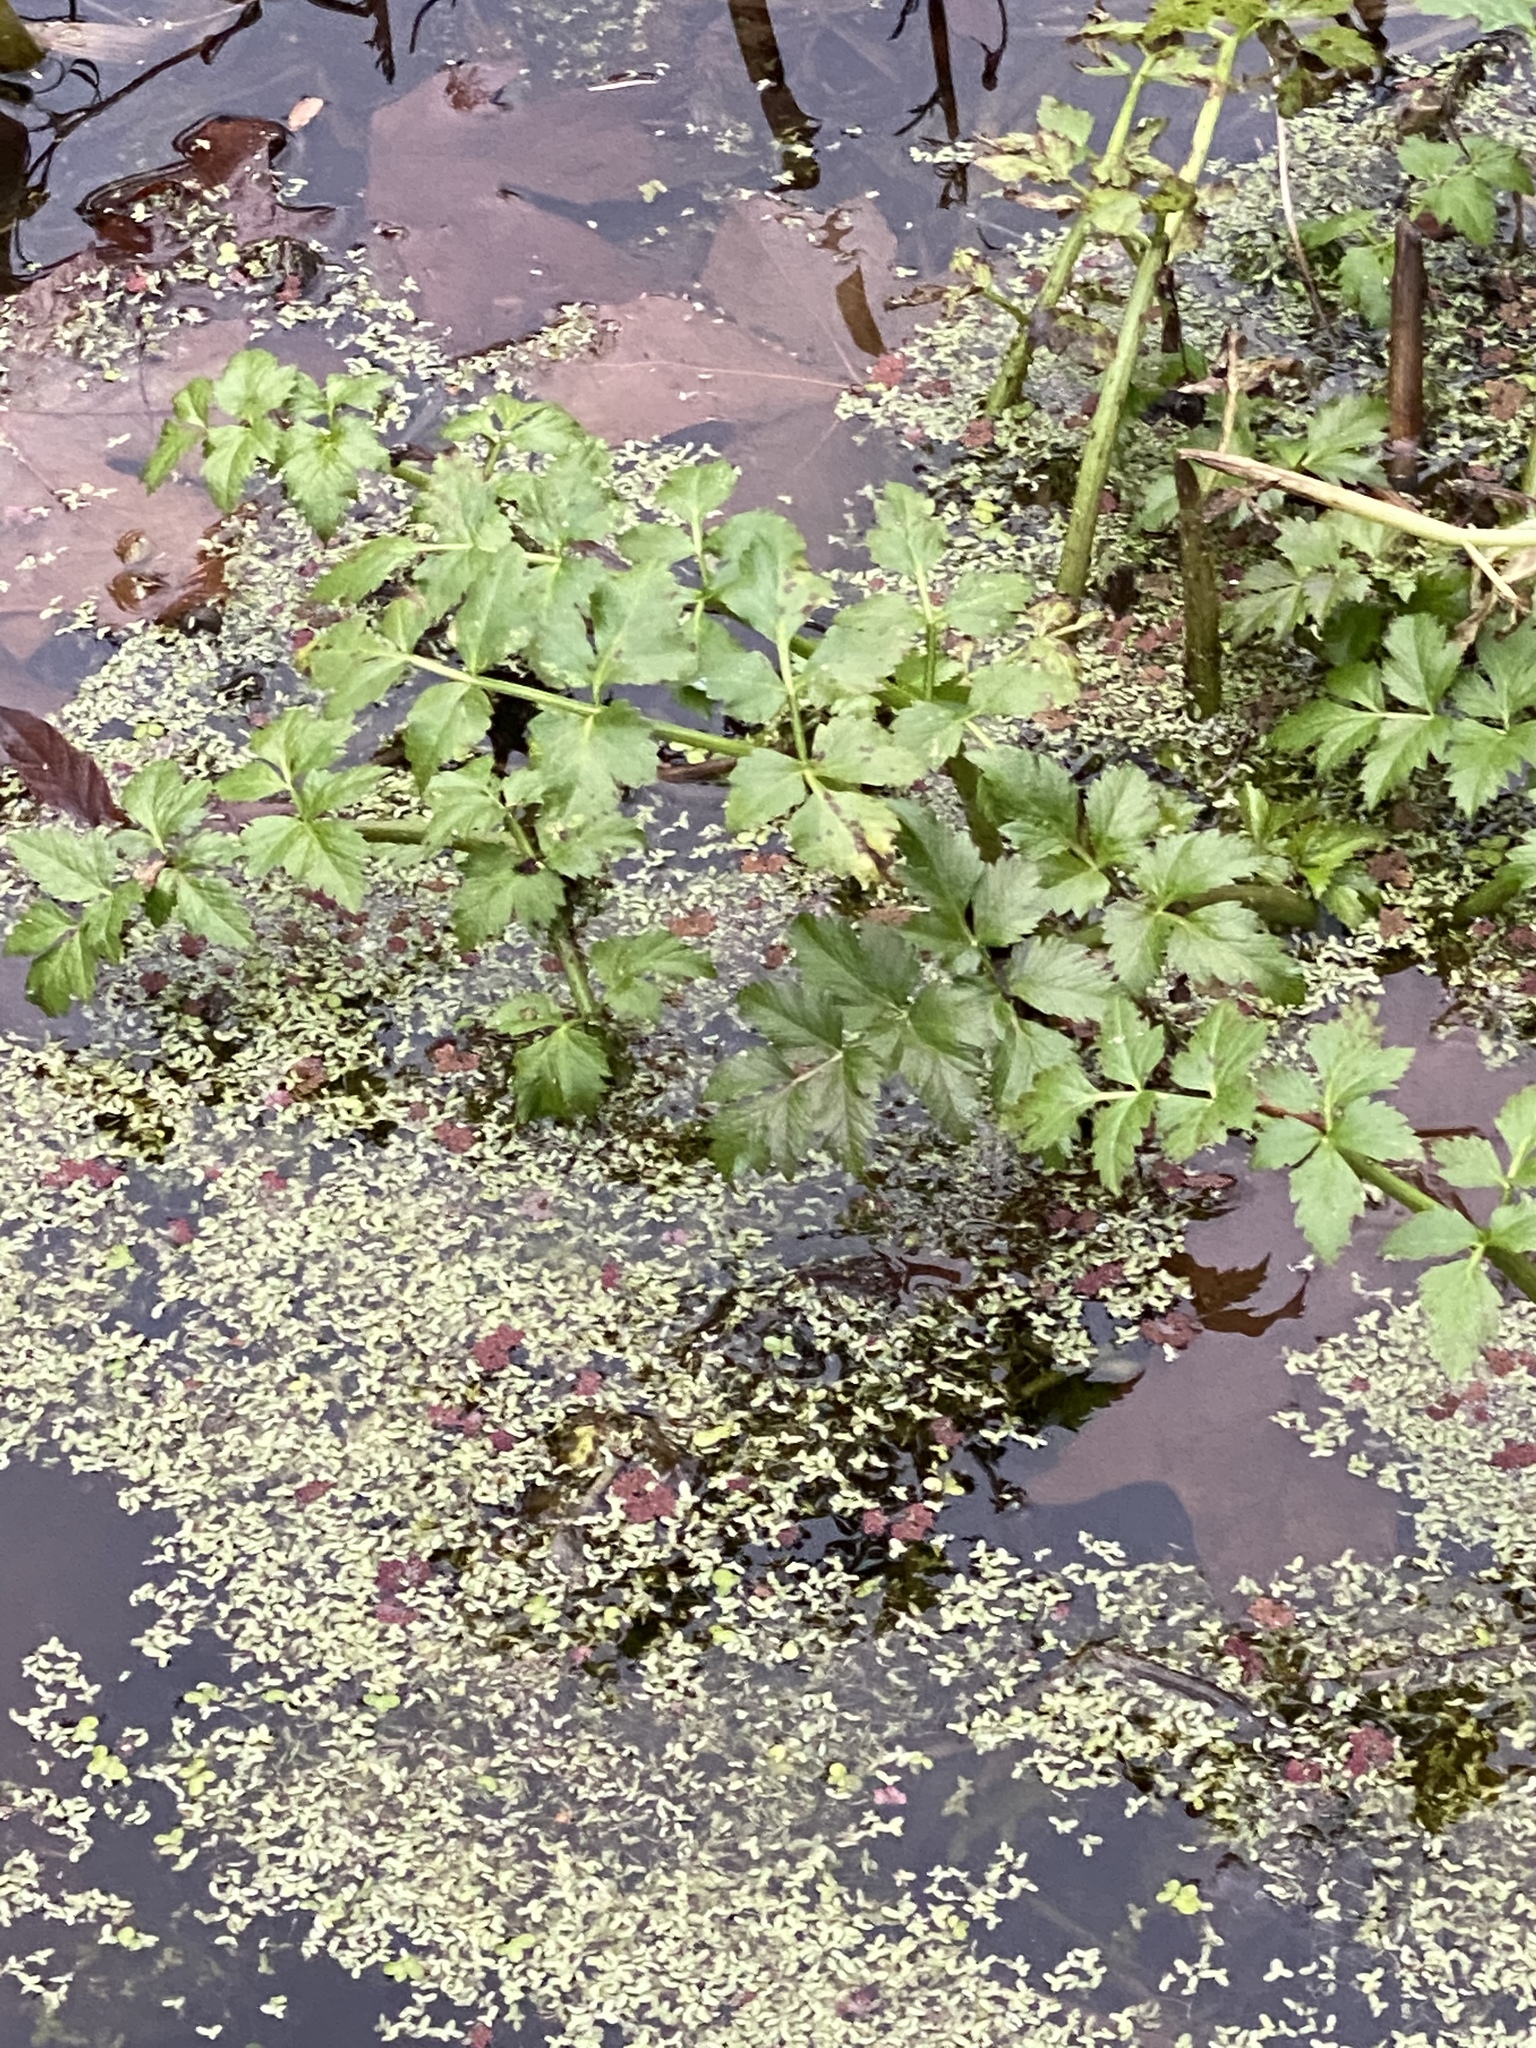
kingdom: Plantae
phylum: Tracheophyta
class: Magnoliopsida
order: Apiales
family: Apiaceae
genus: Oenanthe
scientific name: Oenanthe sarmentosa
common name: American water-parsley
